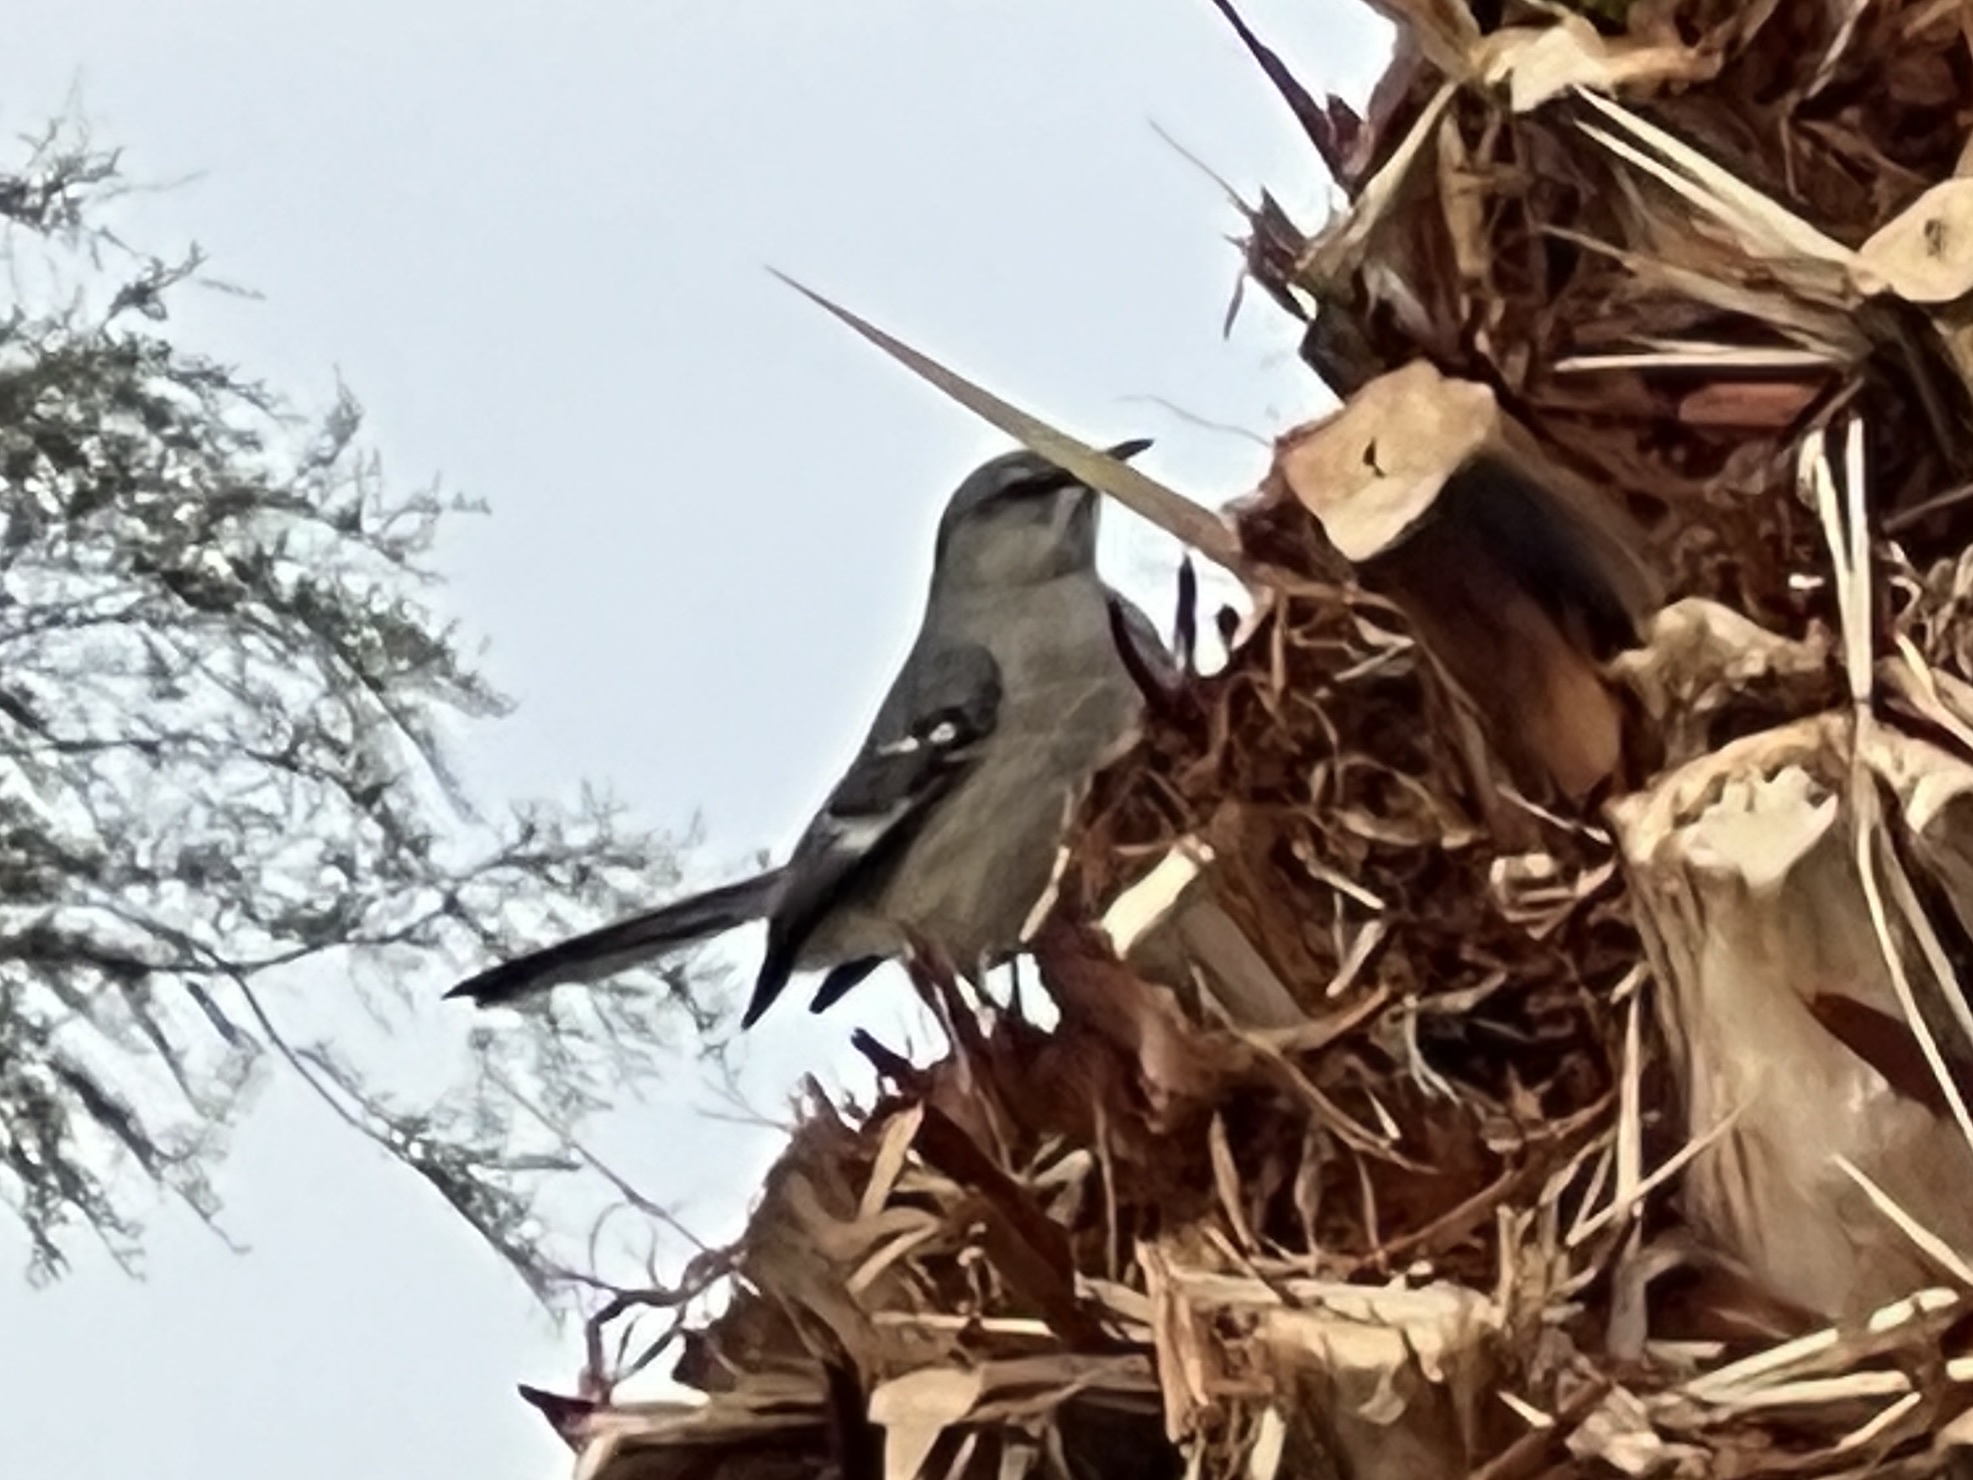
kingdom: Animalia
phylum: Chordata
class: Aves
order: Passeriformes
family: Mimidae
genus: Mimus
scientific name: Mimus polyglottos
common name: Northern mockingbird
